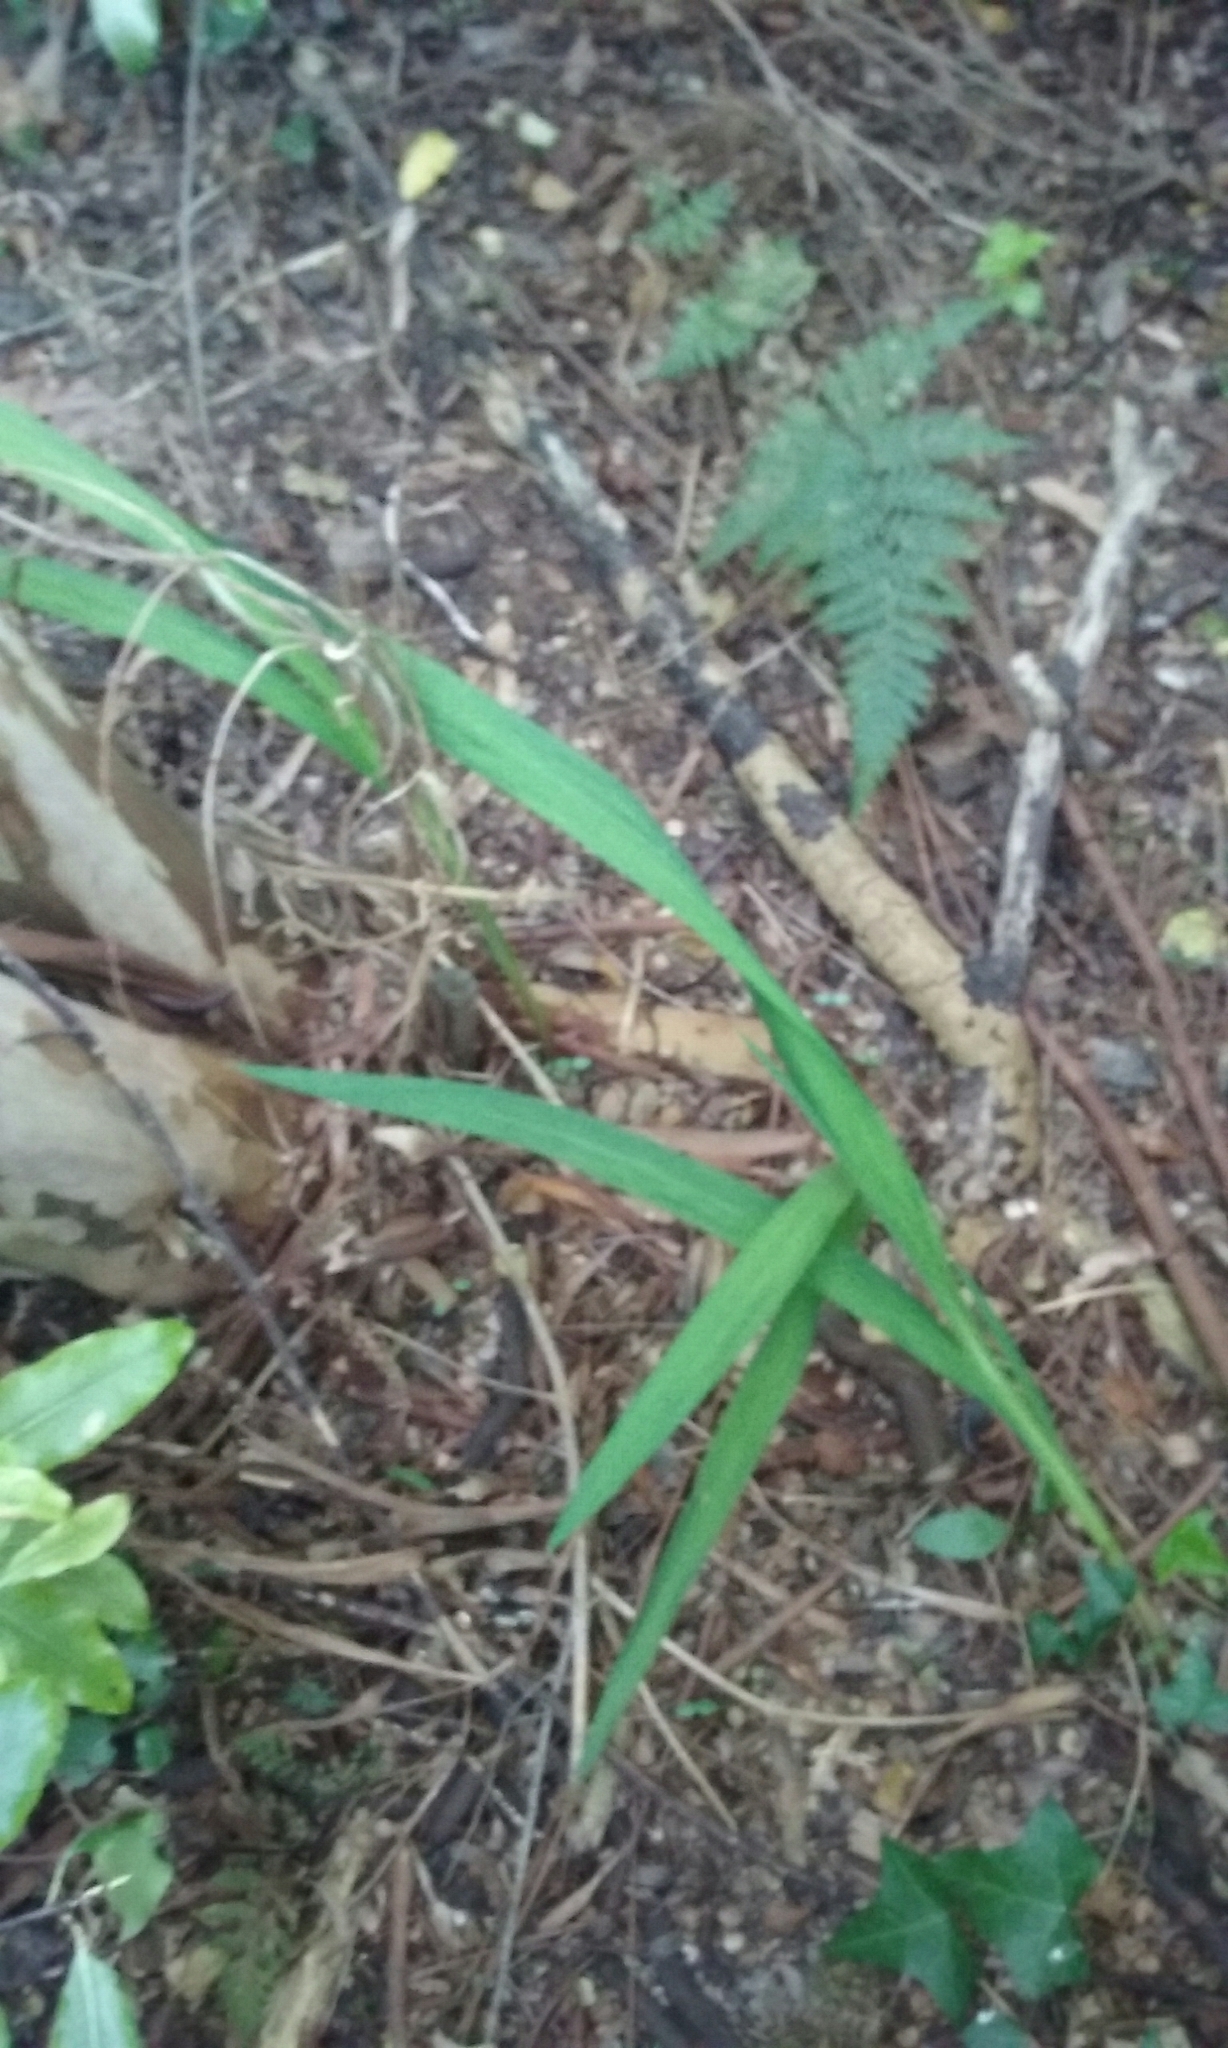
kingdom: Plantae
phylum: Tracheophyta
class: Liliopsida
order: Asparagales
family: Iridaceae
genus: Crocosmia
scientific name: Crocosmia crocosmiiflora
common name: Montbretia
